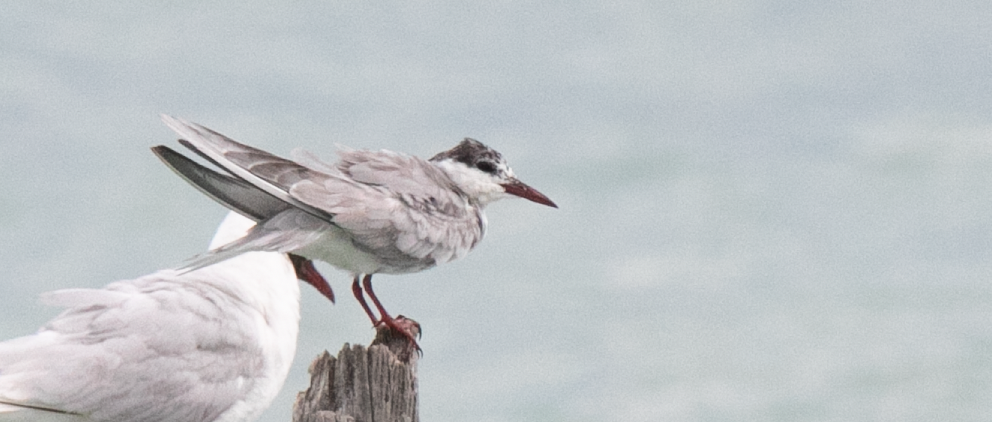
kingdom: Animalia
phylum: Chordata
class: Aves
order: Charadriiformes
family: Laridae
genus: Chlidonias
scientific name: Chlidonias hybrida
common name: Whiskered tern
